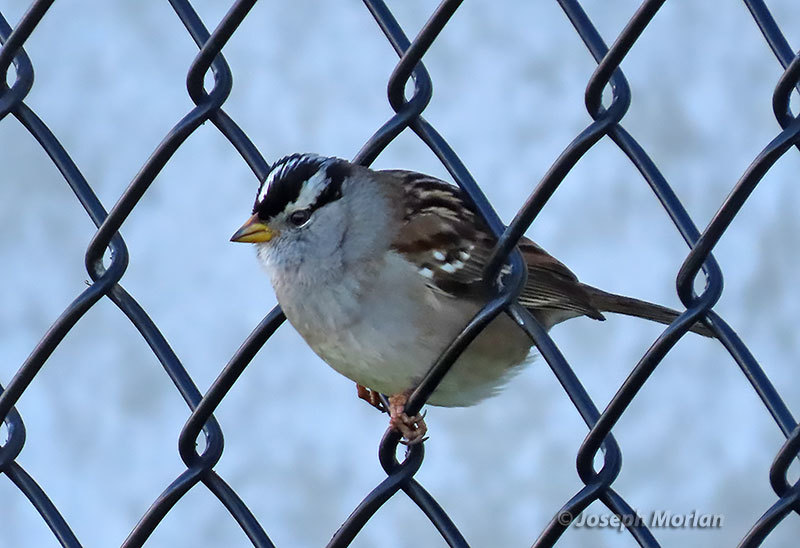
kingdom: Animalia
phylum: Chordata
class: Aves
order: Passeriformes
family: Passerellidae
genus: Zonotrichia
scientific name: Zonotrichia leucophrys
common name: White-crowned sparrow
